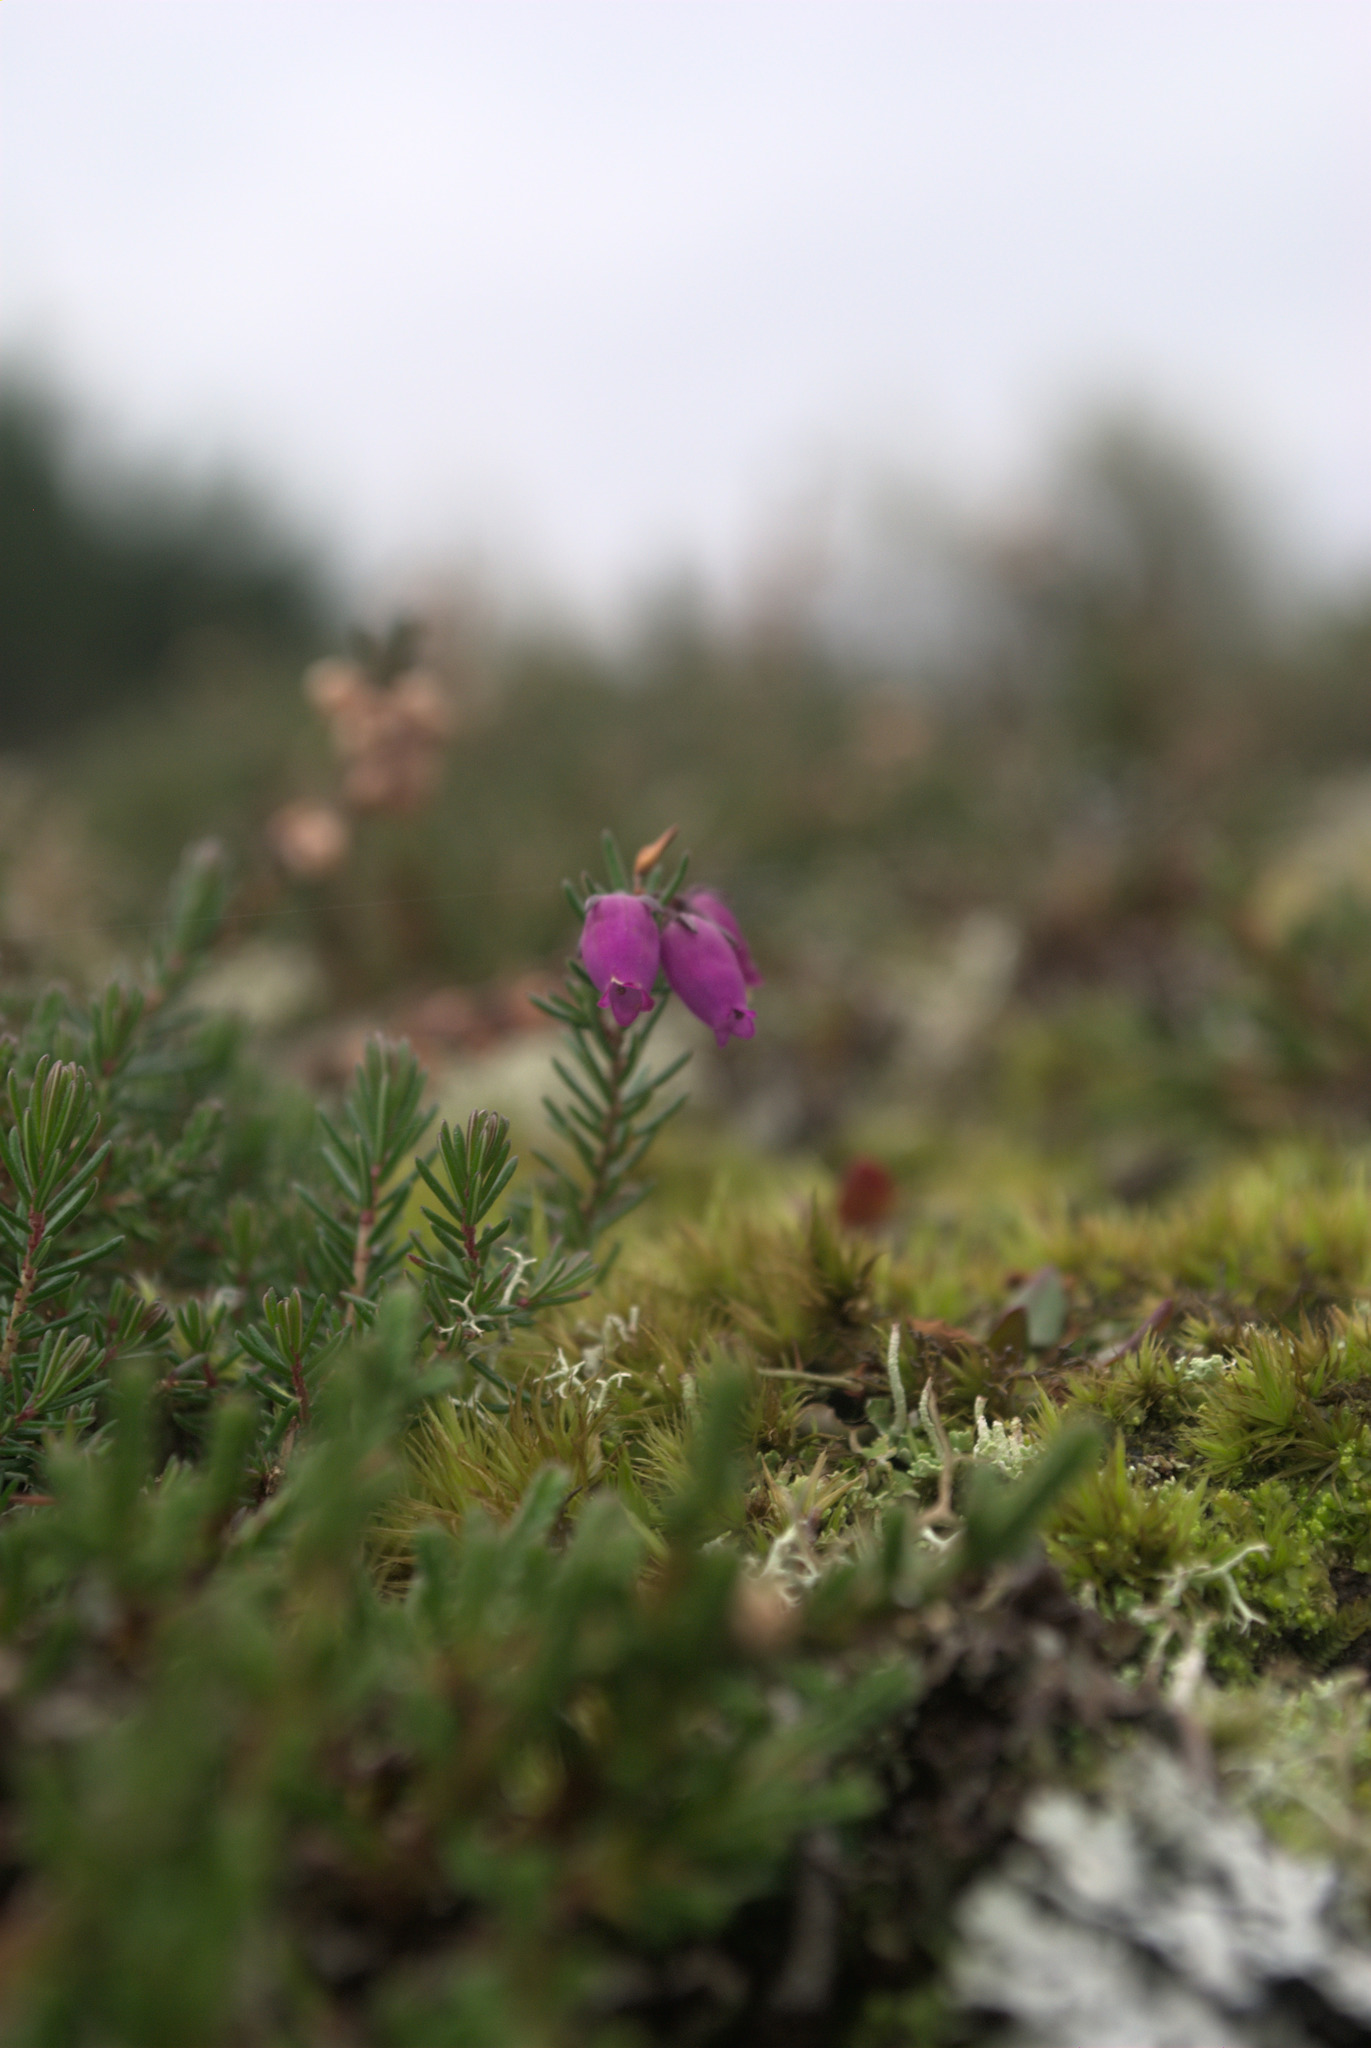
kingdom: Plantae
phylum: Tracheophyta
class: Magnoliopsida
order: Ericales
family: Ericaceae
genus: Erica
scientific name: Erica cinerea
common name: Bell heather
